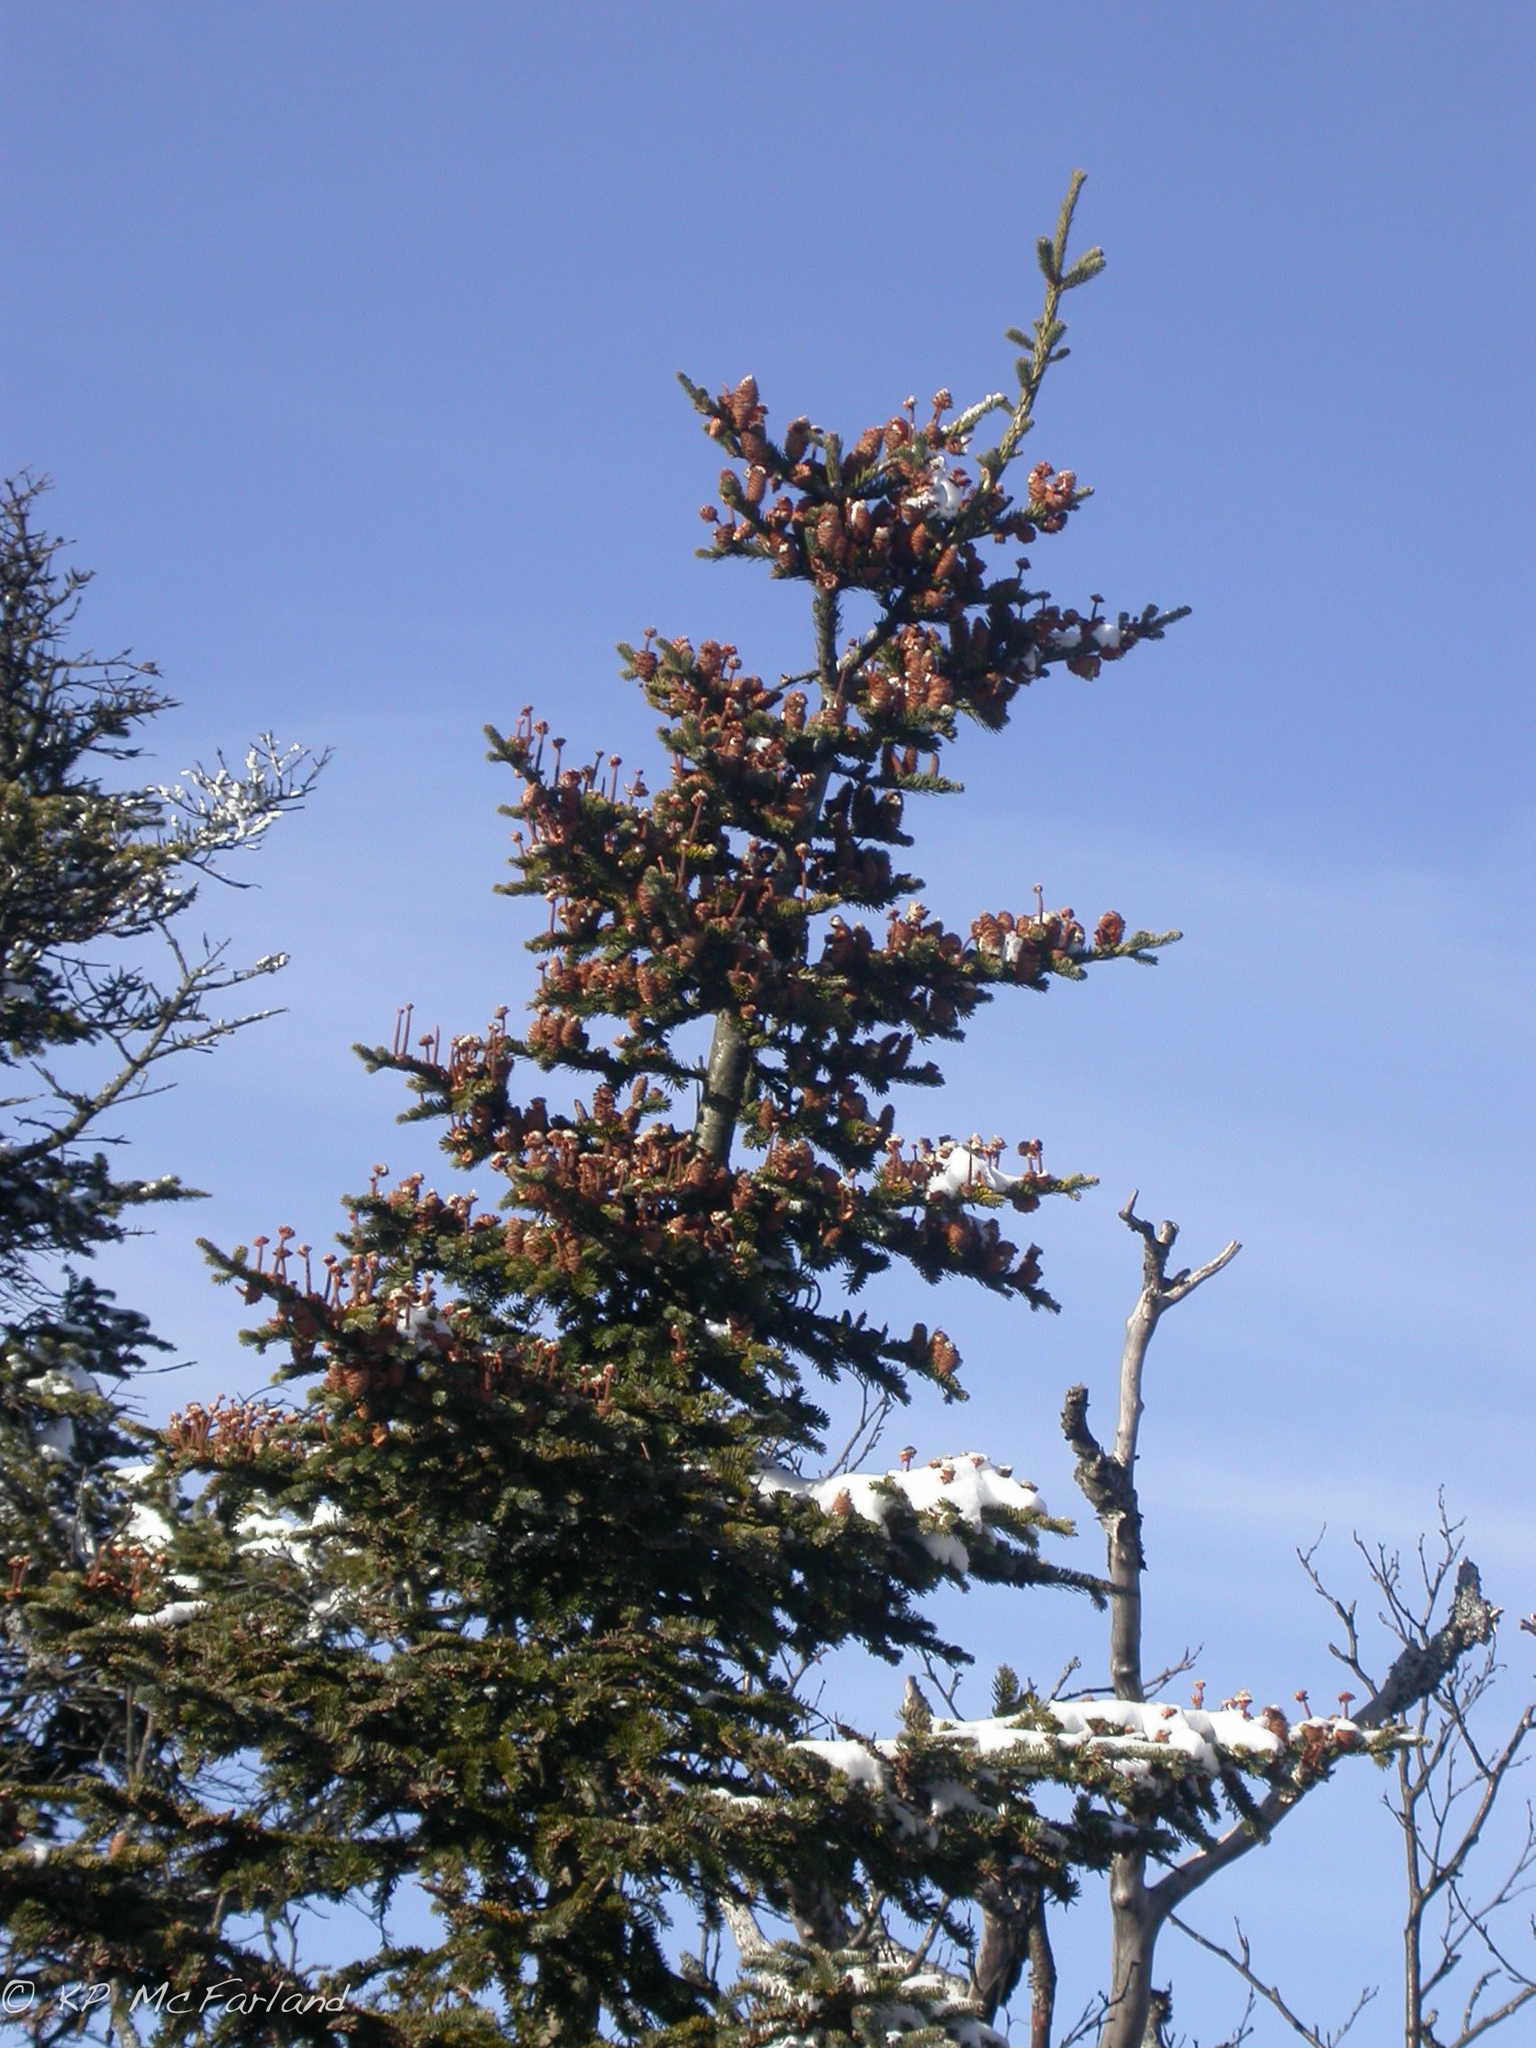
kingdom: Plantae
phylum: Tracheophyta
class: Pinopsida
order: Pinales
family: Pinaceae
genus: Abies
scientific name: Abies balsamea
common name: Balsam fir
